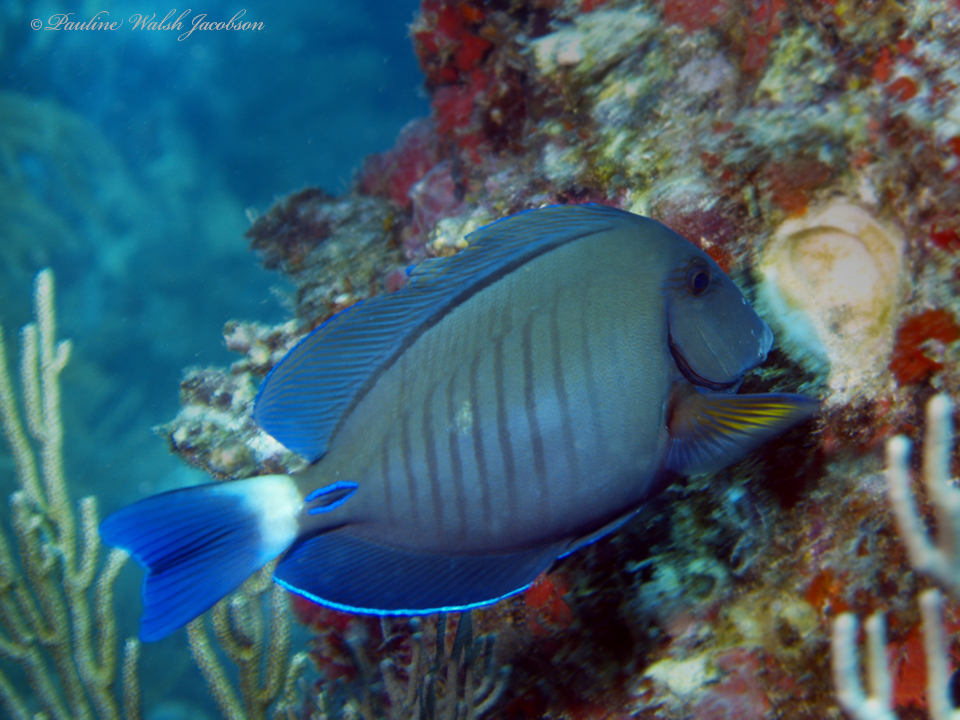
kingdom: Animalia
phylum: Chordata
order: Perciformes
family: Acanthuridae
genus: Acanthurus
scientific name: Acanthurus chirurgus
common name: Doctorfish
